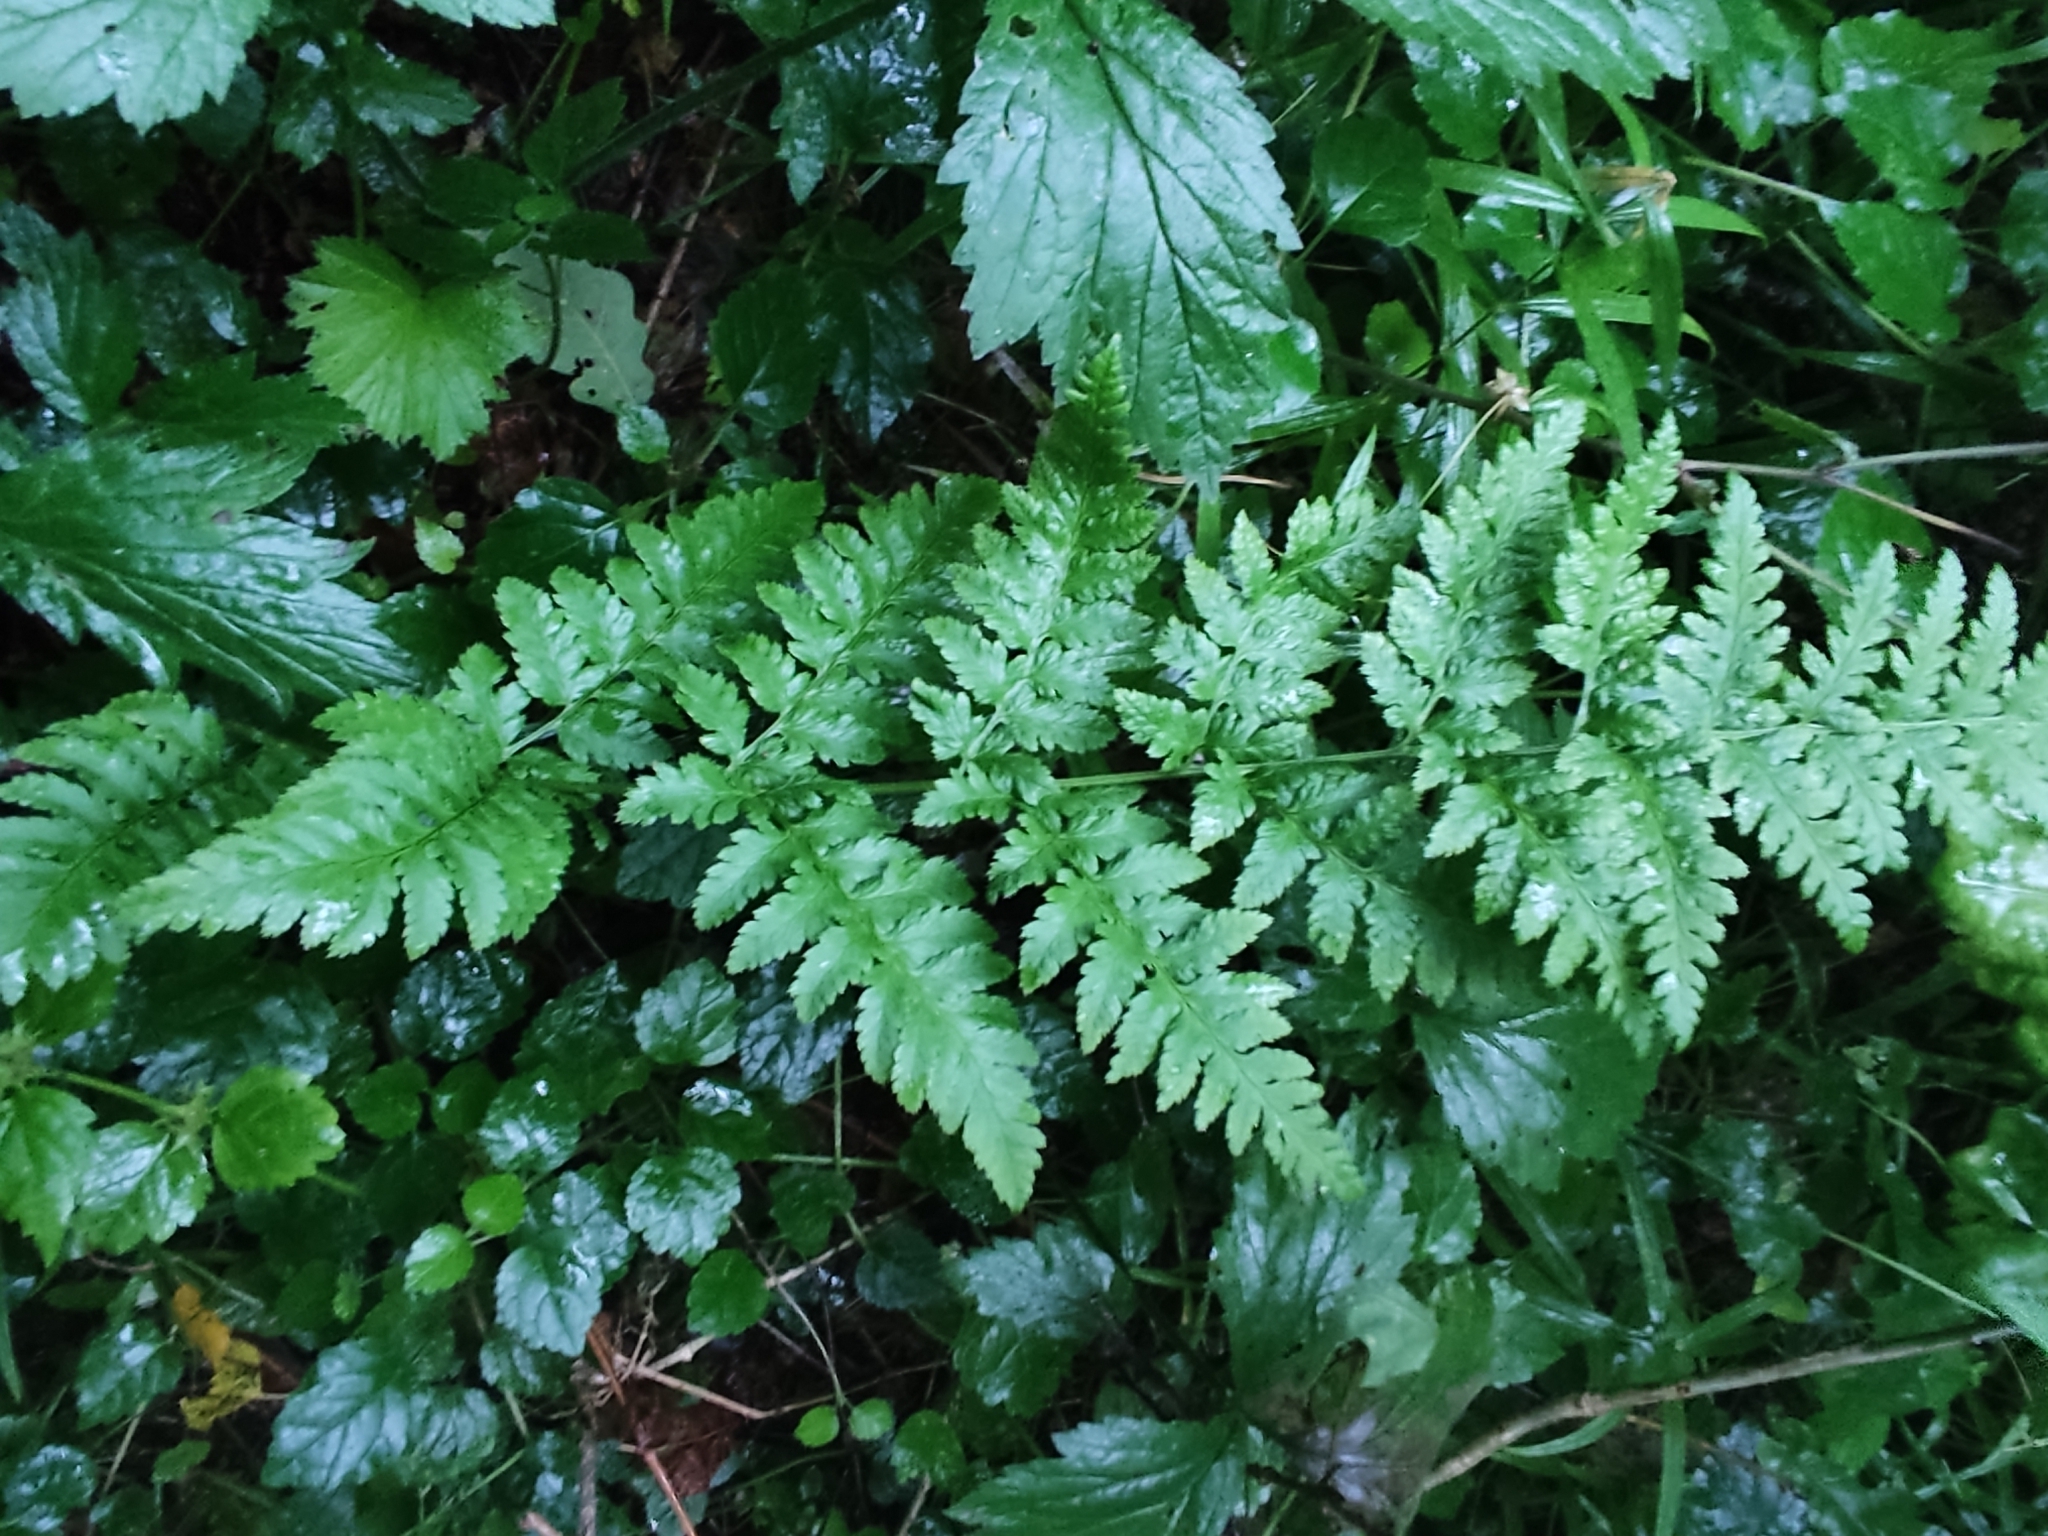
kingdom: Plantae
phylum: Tracheophyta
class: Polypodiopsida
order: Polypodiales
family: Dryopteridaceae
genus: Dryopteris
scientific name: Dryopteris carthusiana
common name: Narrow buckler-fern
